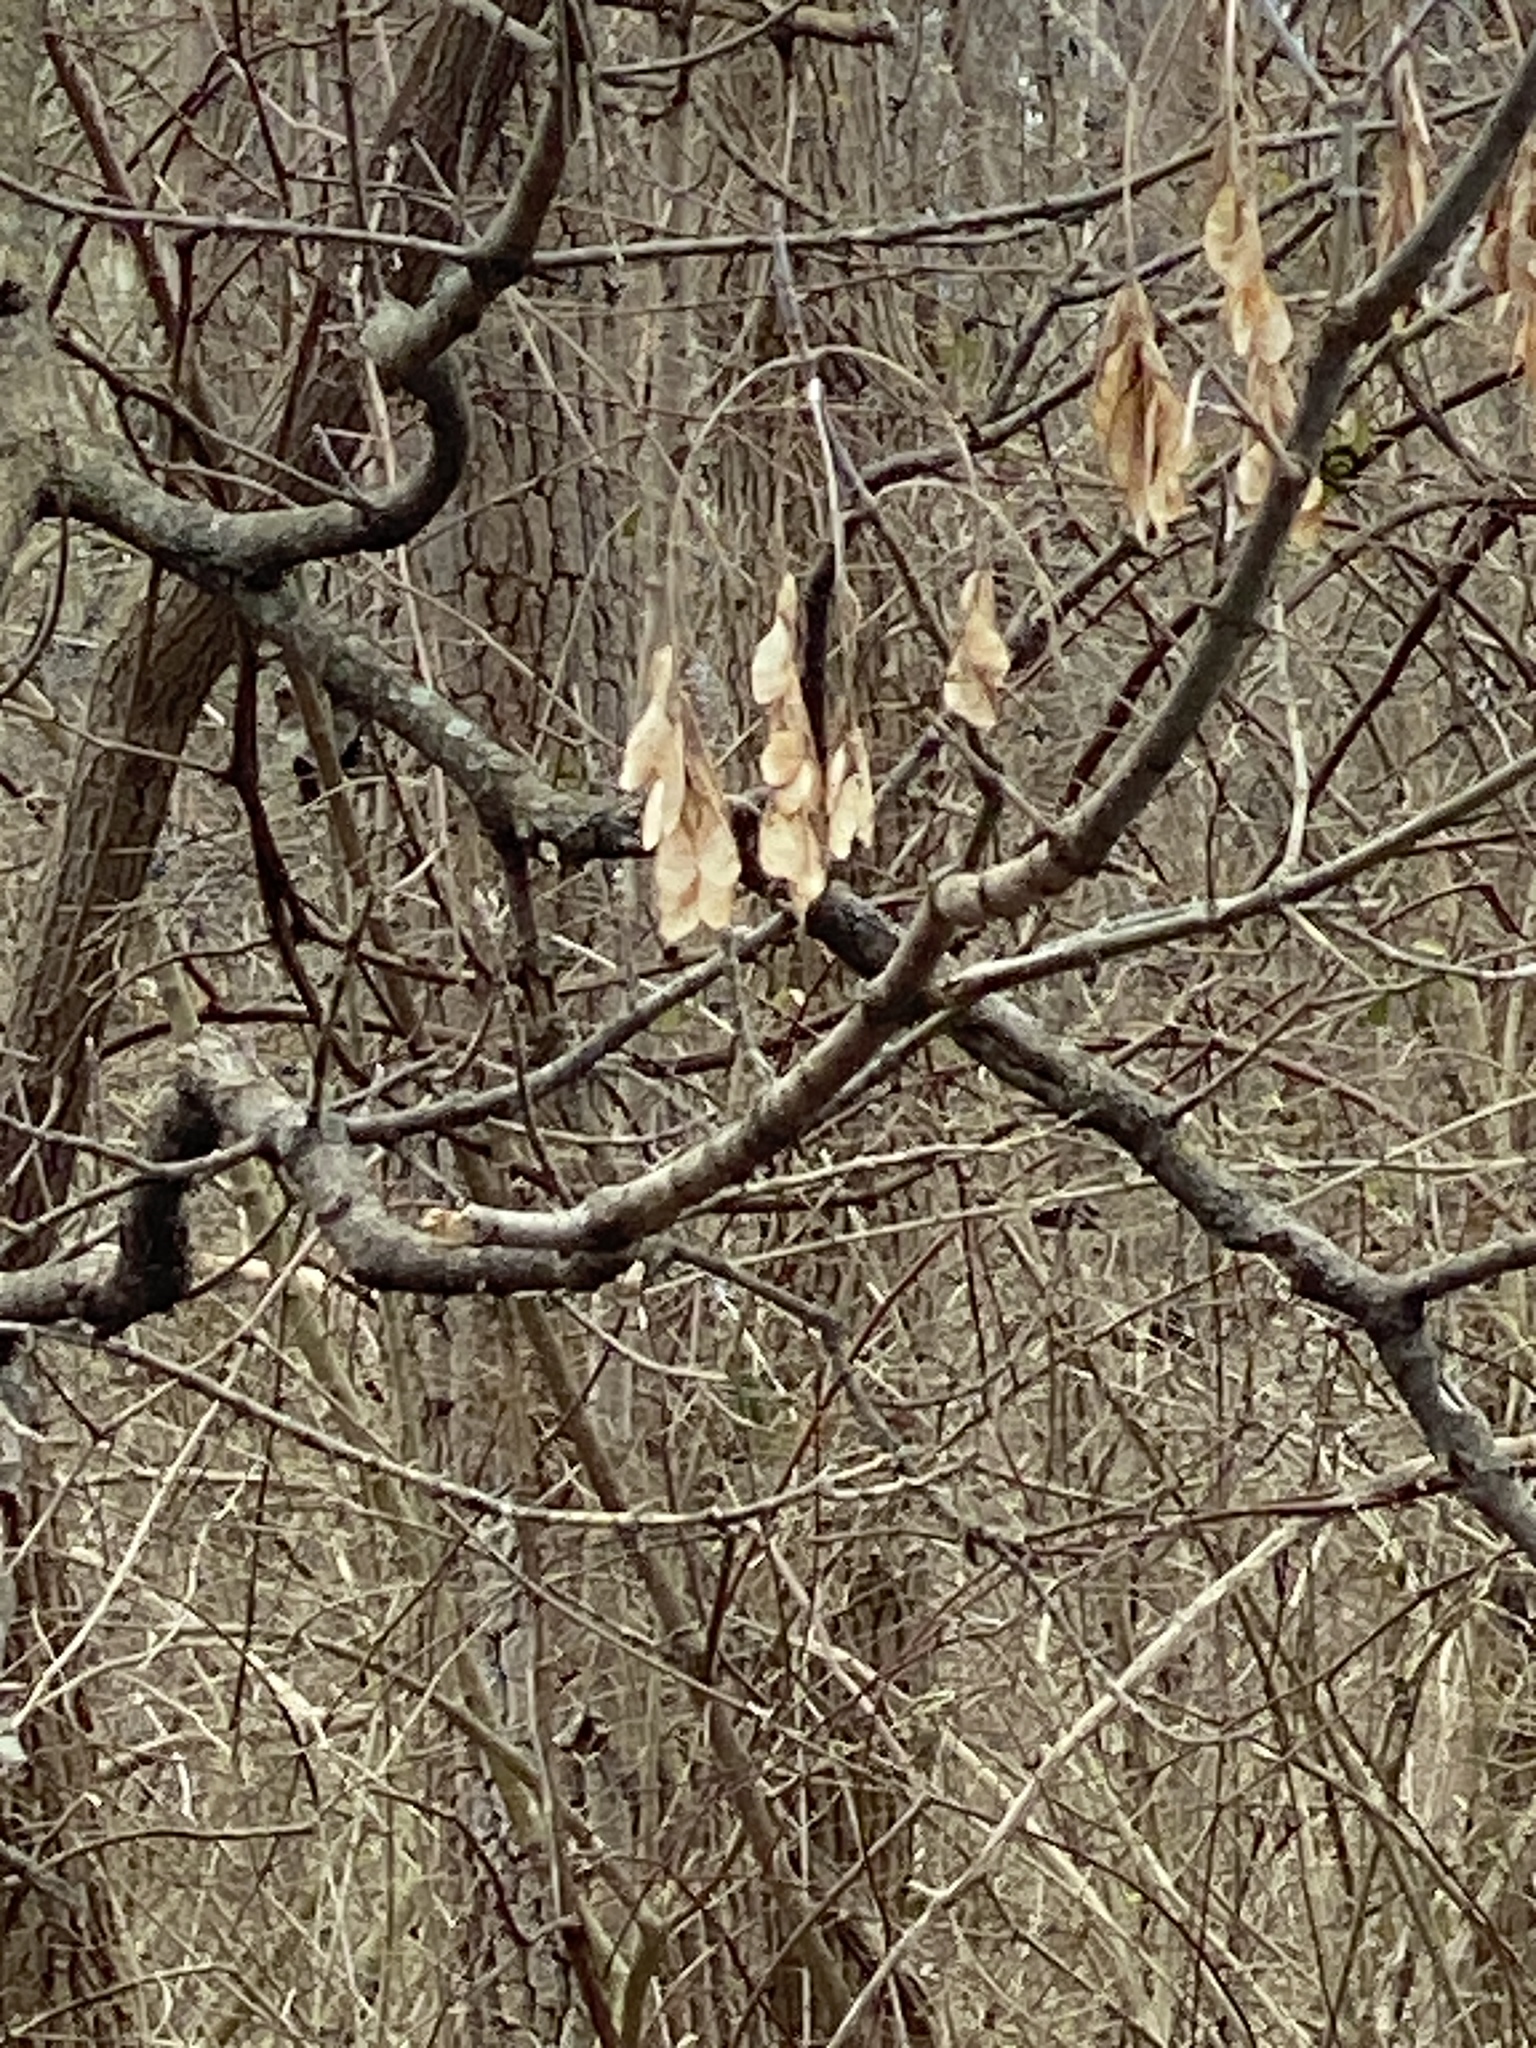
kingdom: Plantae
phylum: Tracheophyta
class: Magnoliopsida
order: Sapindales
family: Sapindaceae
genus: Acer
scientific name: Acer negundo
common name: Ashleaf maple
